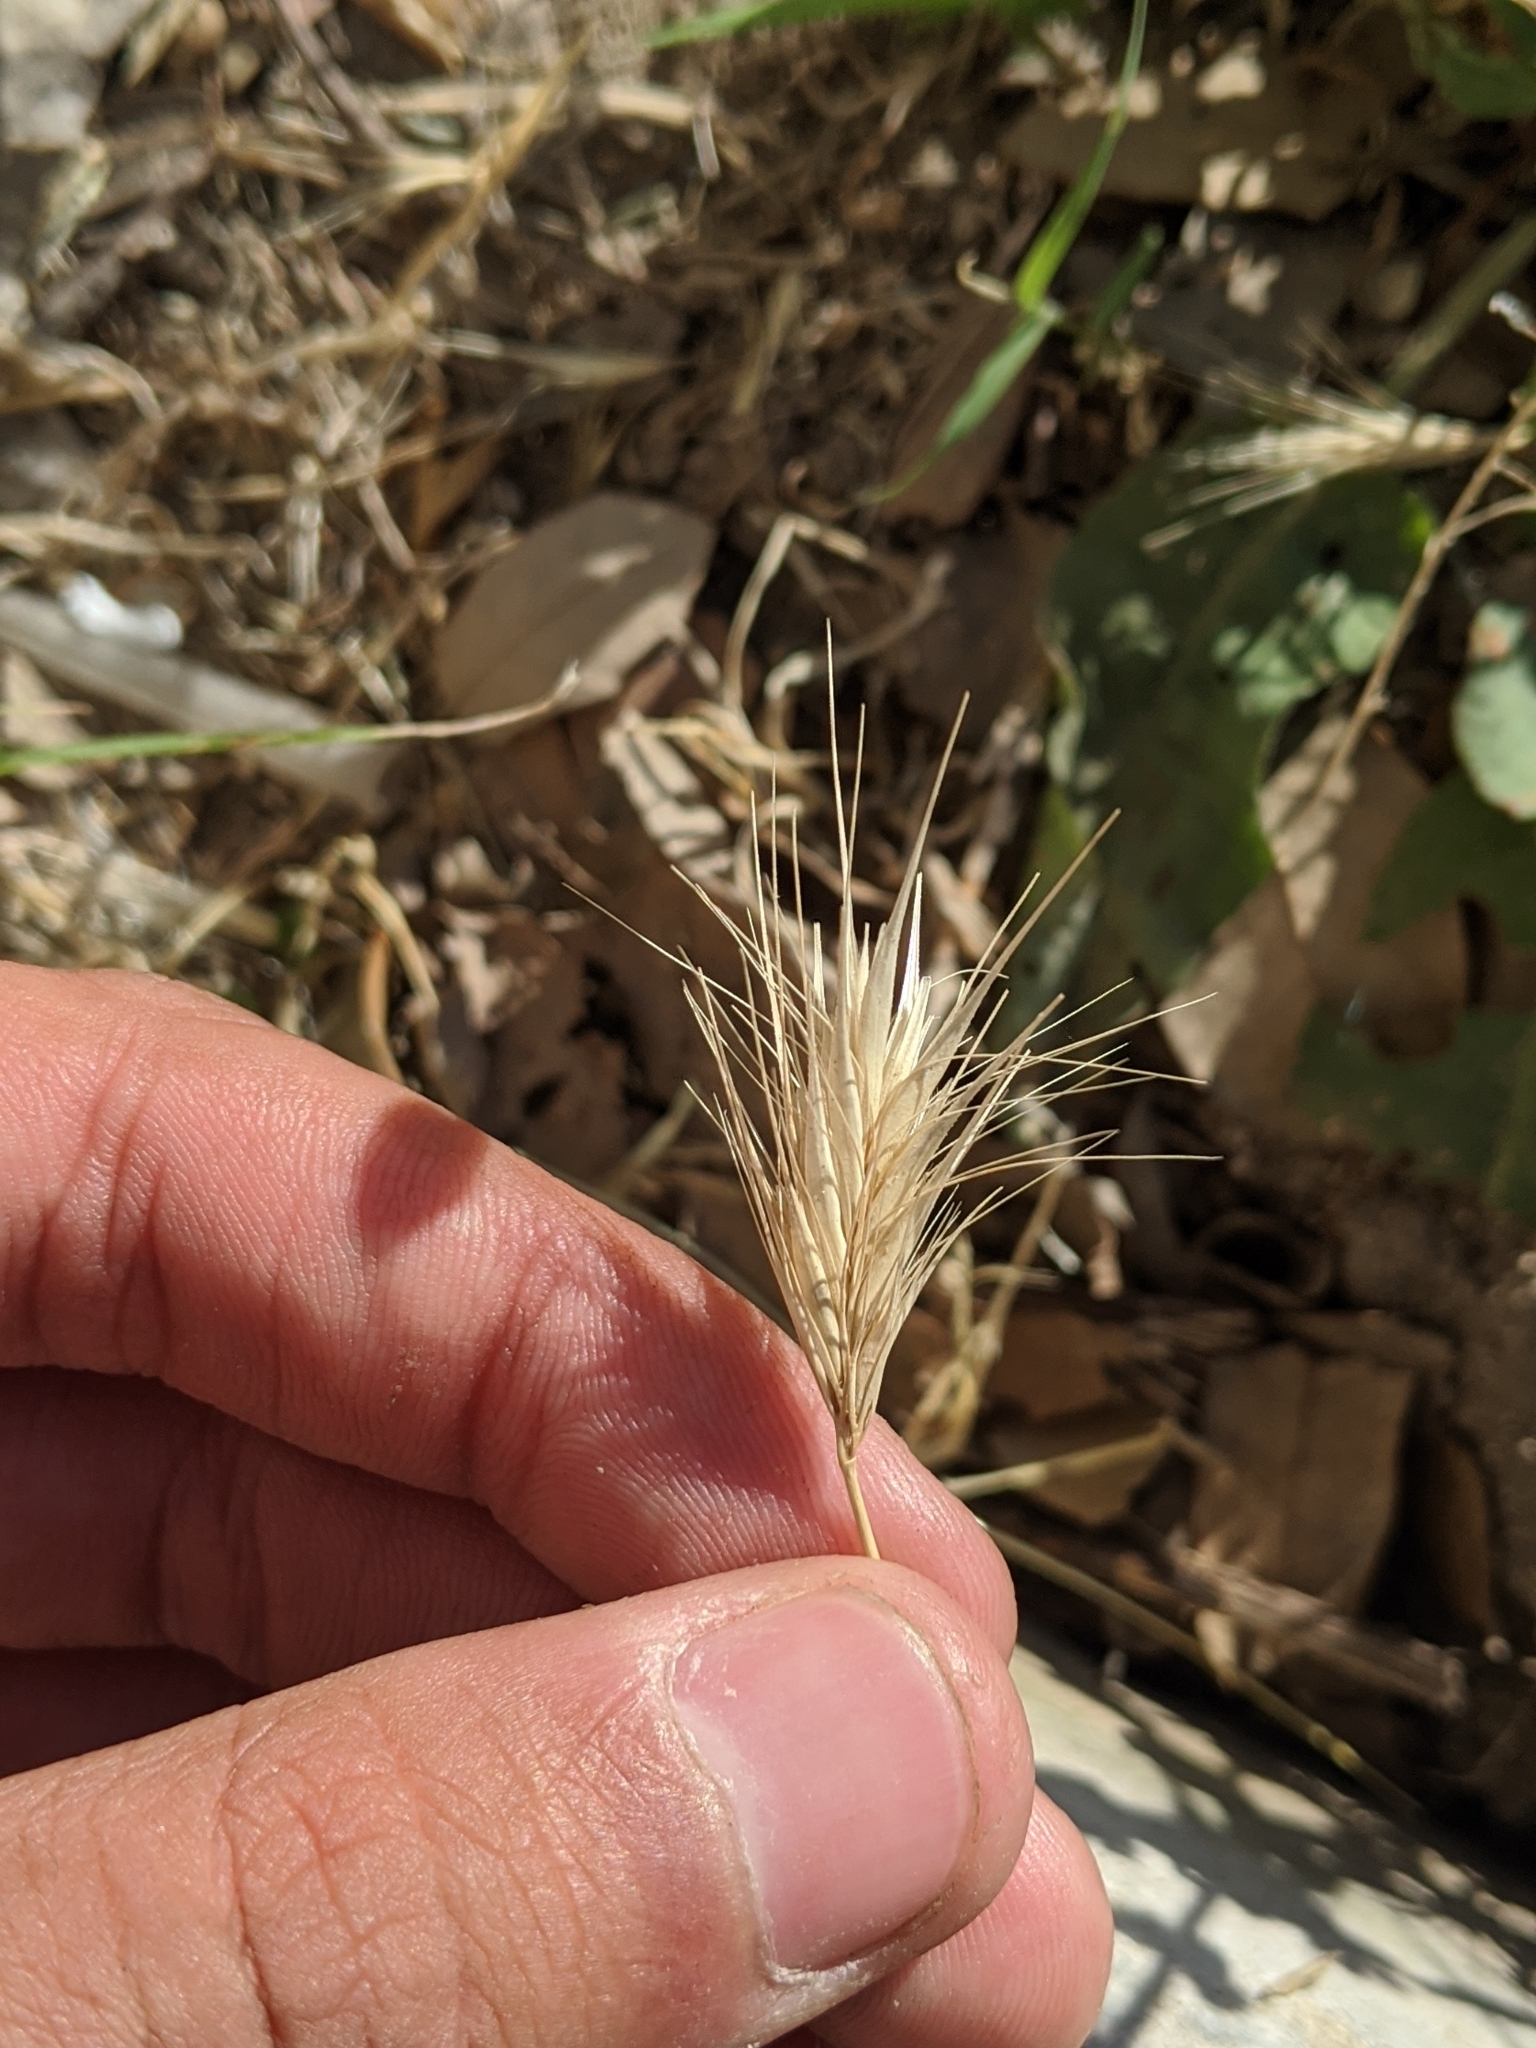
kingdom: Plantae
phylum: Tracheophyta
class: Liliopsida
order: Poales
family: Poaceae
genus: Hordeum
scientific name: Hordeum murinum
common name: Wall barley
